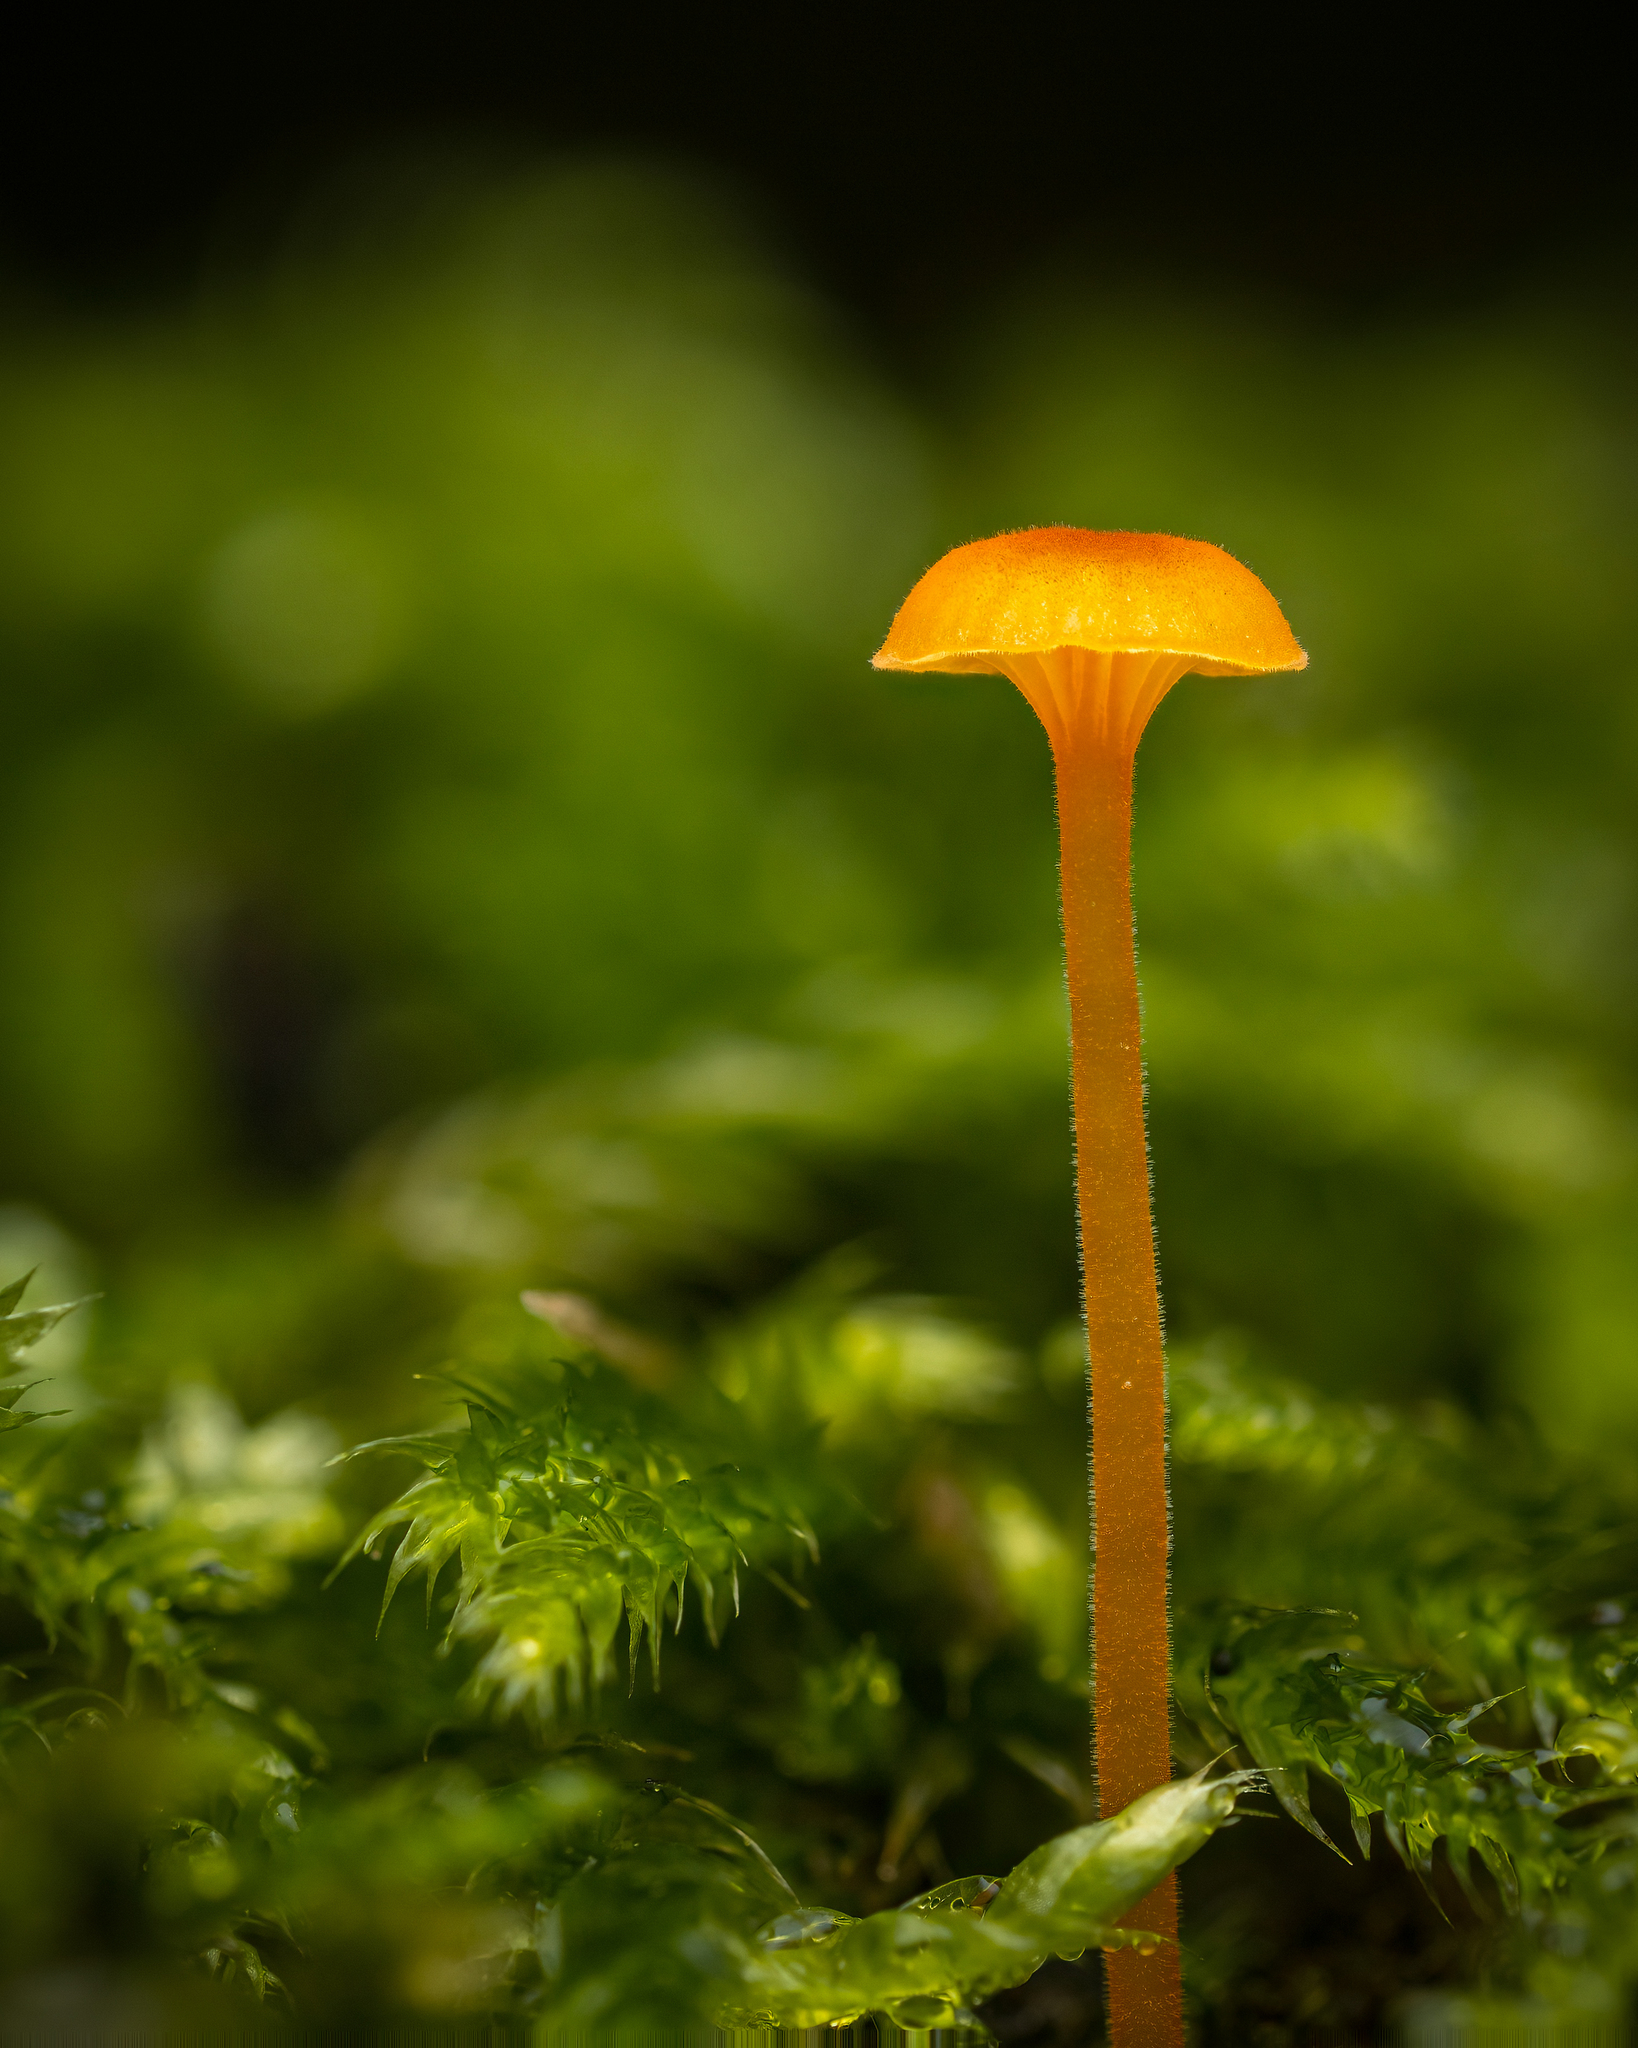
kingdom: Fungi
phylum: Basidiomycota
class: Agaricomycetes
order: Hymenochaetales
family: Rickenellaceae
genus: Rickenella
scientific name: Rickenella fibula
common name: Orange mosscap
